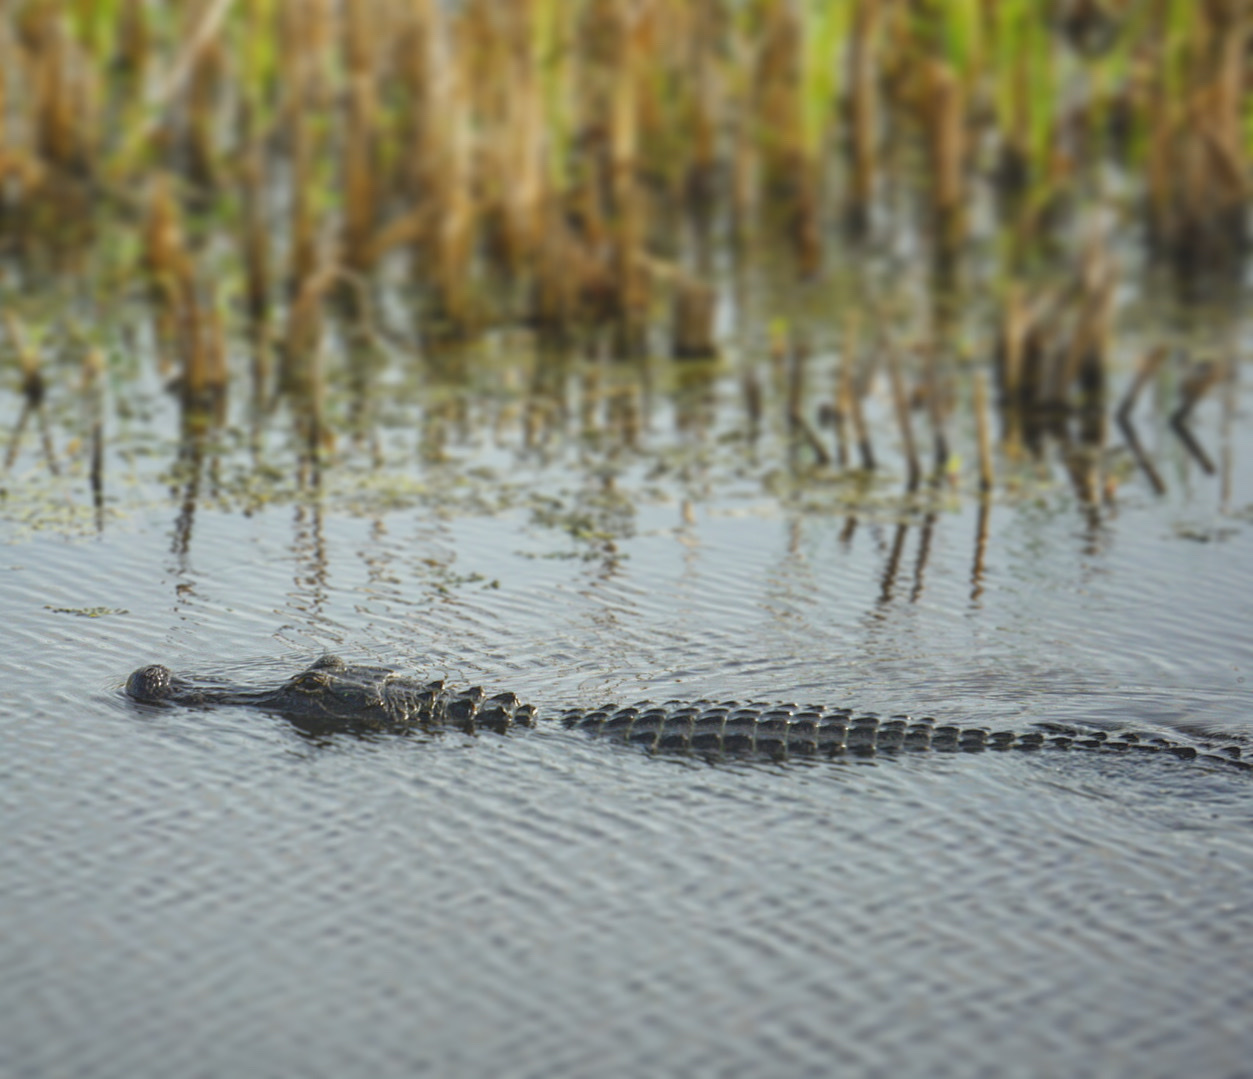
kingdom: Animalia
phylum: Chordata
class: Crocodylia
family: Alligatoridae
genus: Alligator
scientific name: Alligator mississippiensis
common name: American alligator
